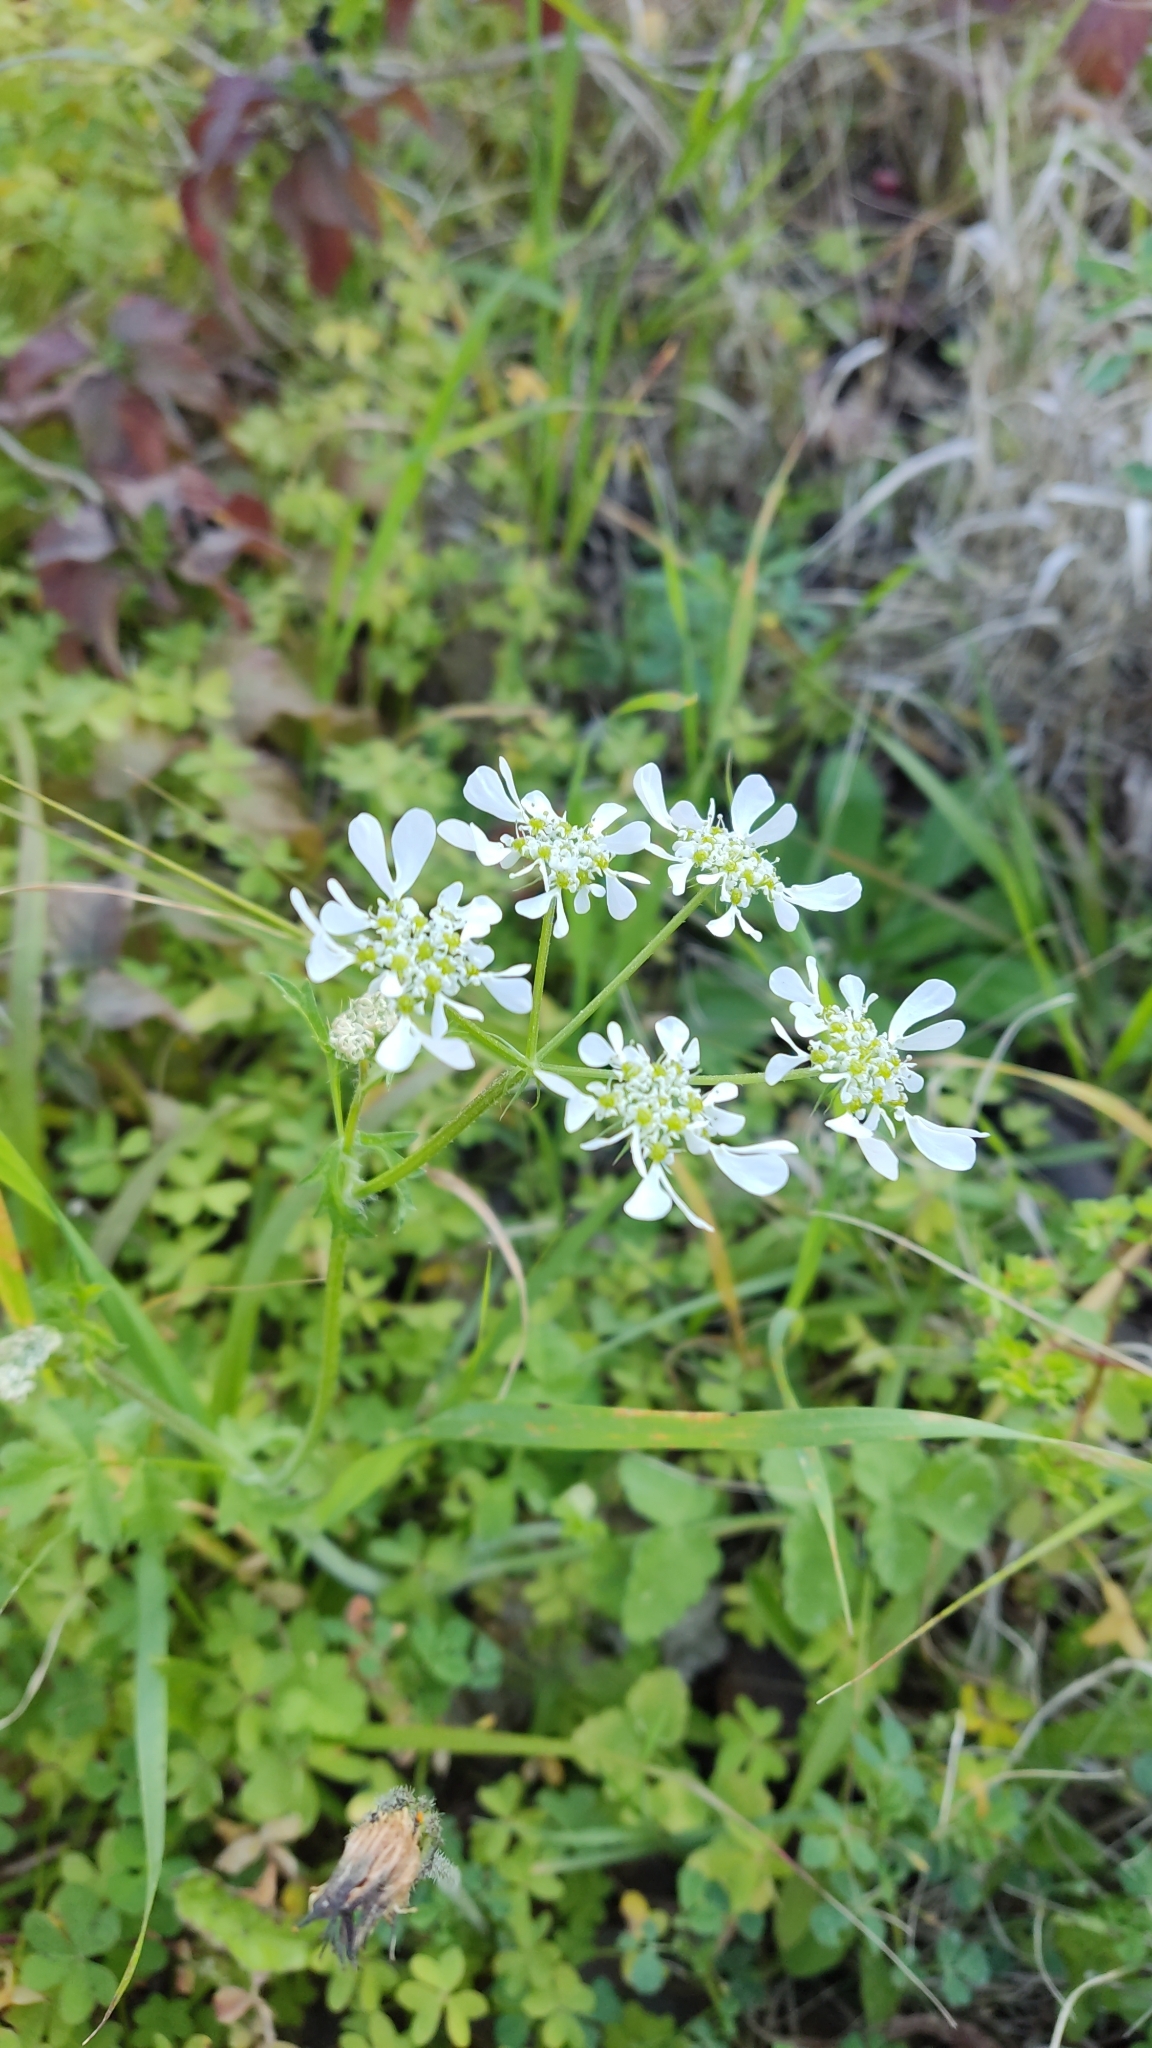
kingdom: Plantae
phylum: Tracheophyta
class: Magnoliopsida
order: Apiales
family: Apiaceae
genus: Tordylium
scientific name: Tordylium apulum
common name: Mediterranean hartwort
